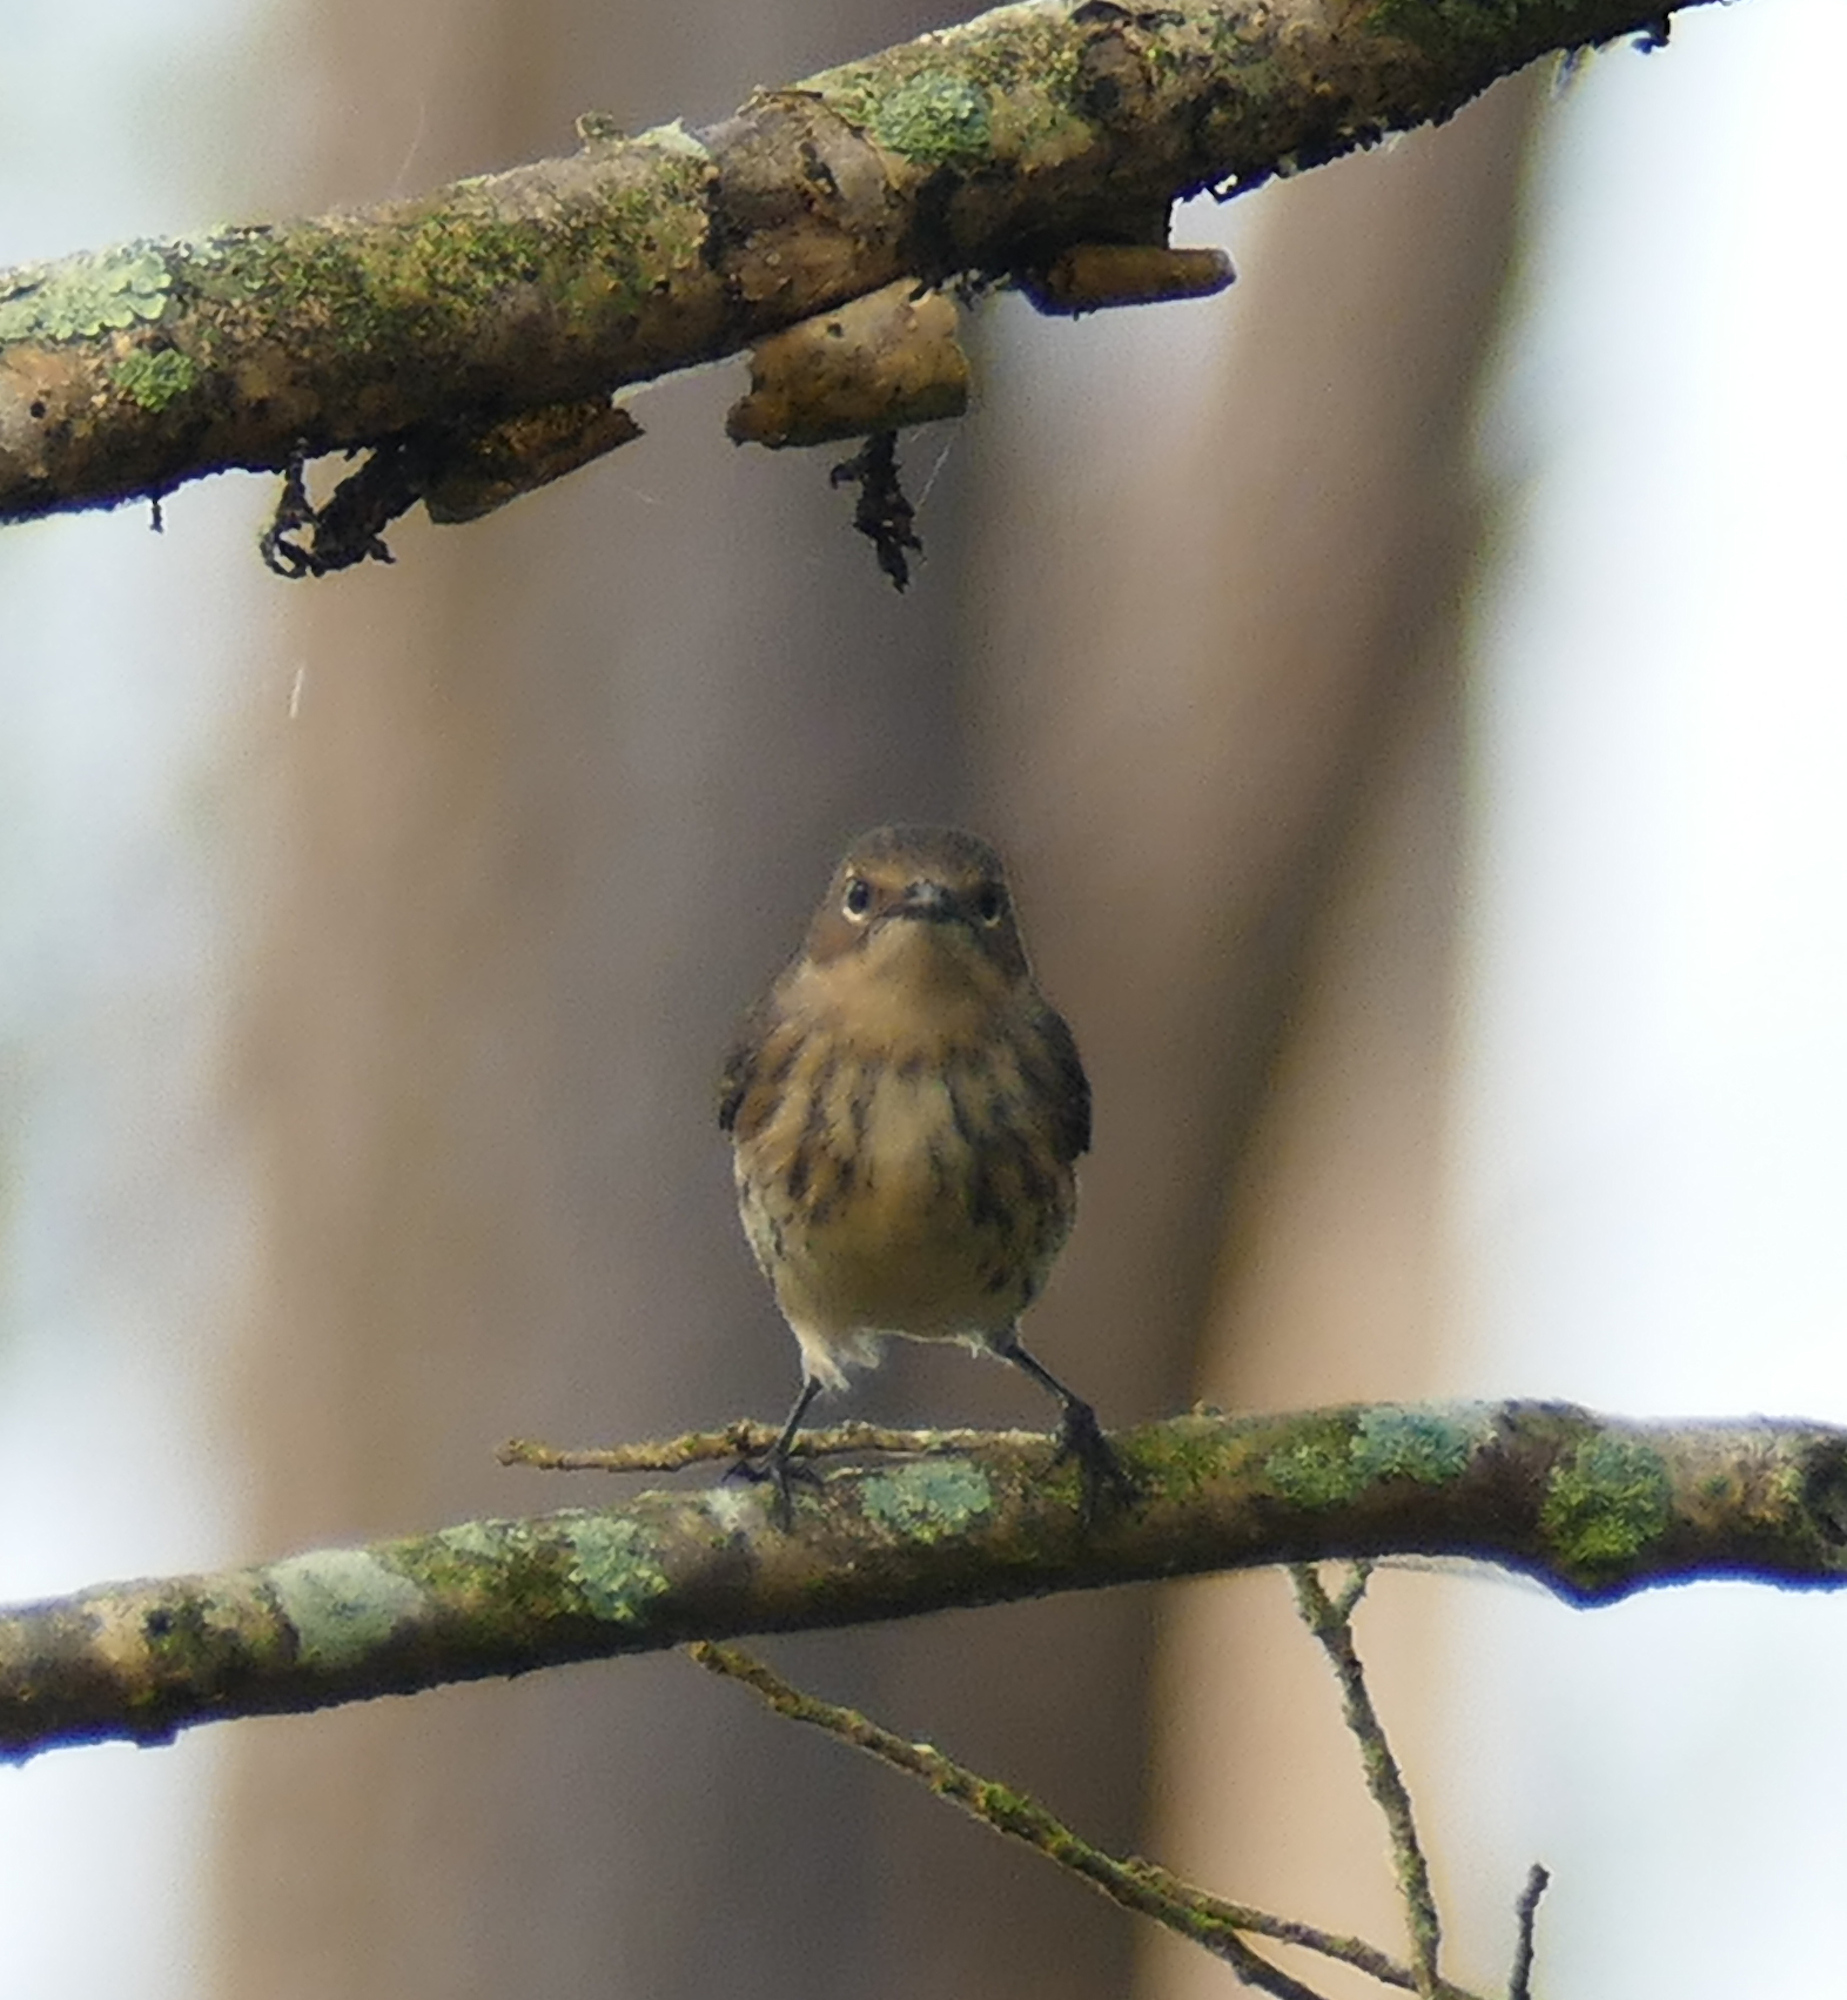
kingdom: Animalia
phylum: Chordata
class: Aves
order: Passeriformes
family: Parulidae
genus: Setophaga
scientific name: Setophaga coronata
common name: Myrtle warbler
